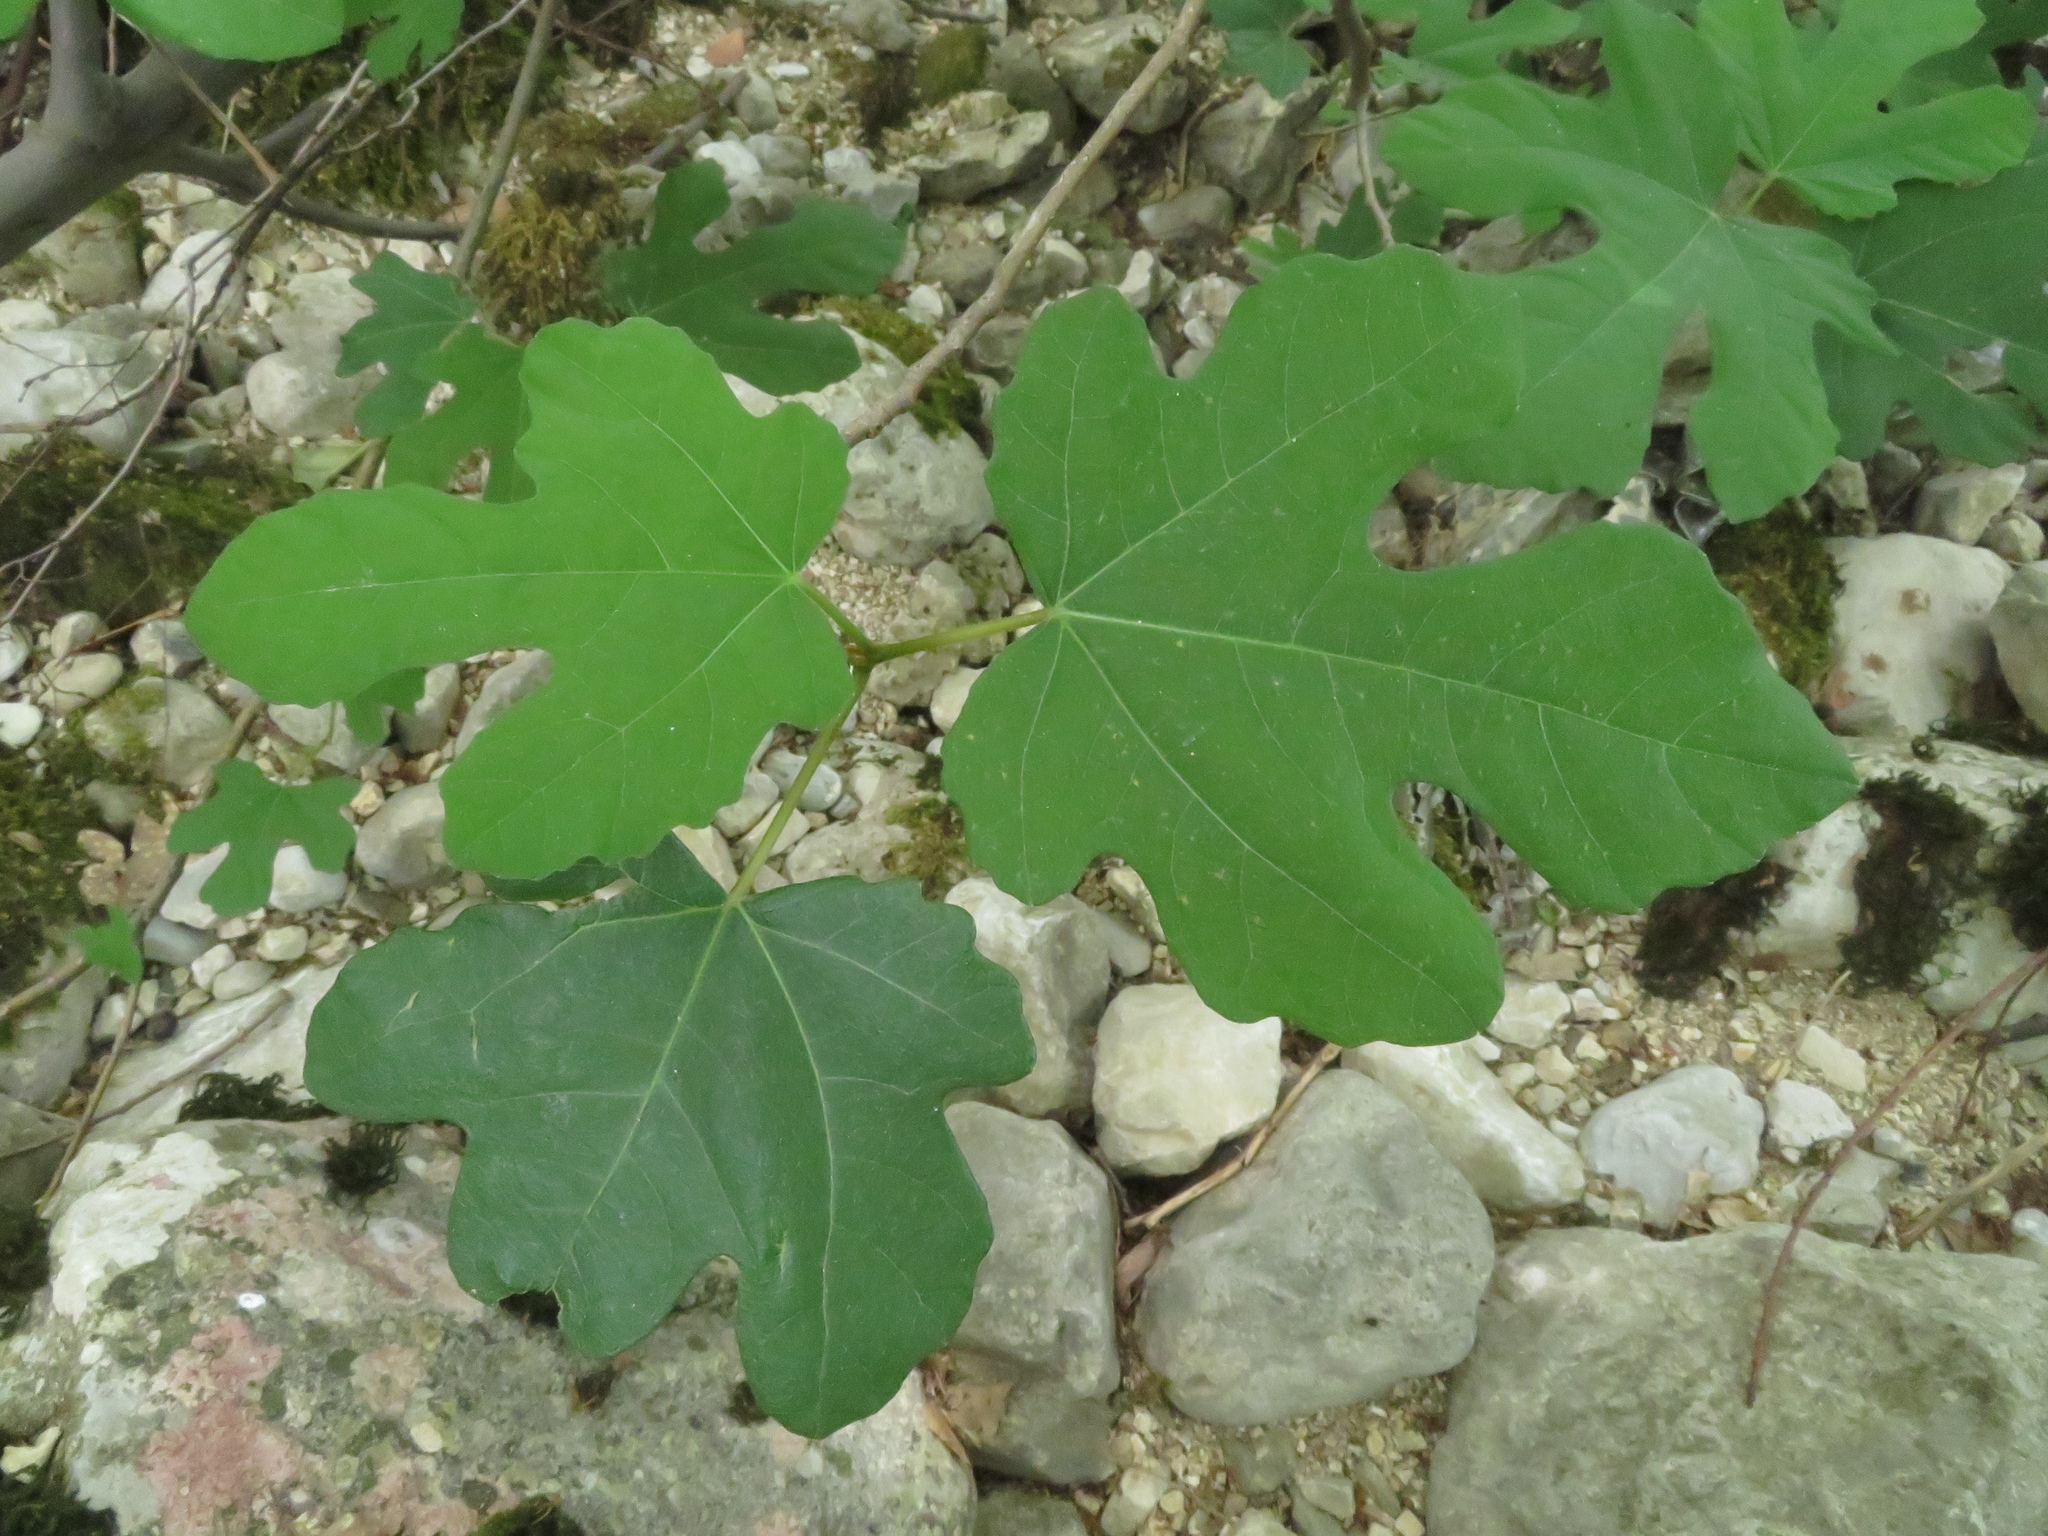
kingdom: Plantae
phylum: Tracheophyta
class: Magnoliopsida
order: Rosales
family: Moraceae
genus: Ficus
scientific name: Ficus carica
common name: Fig
